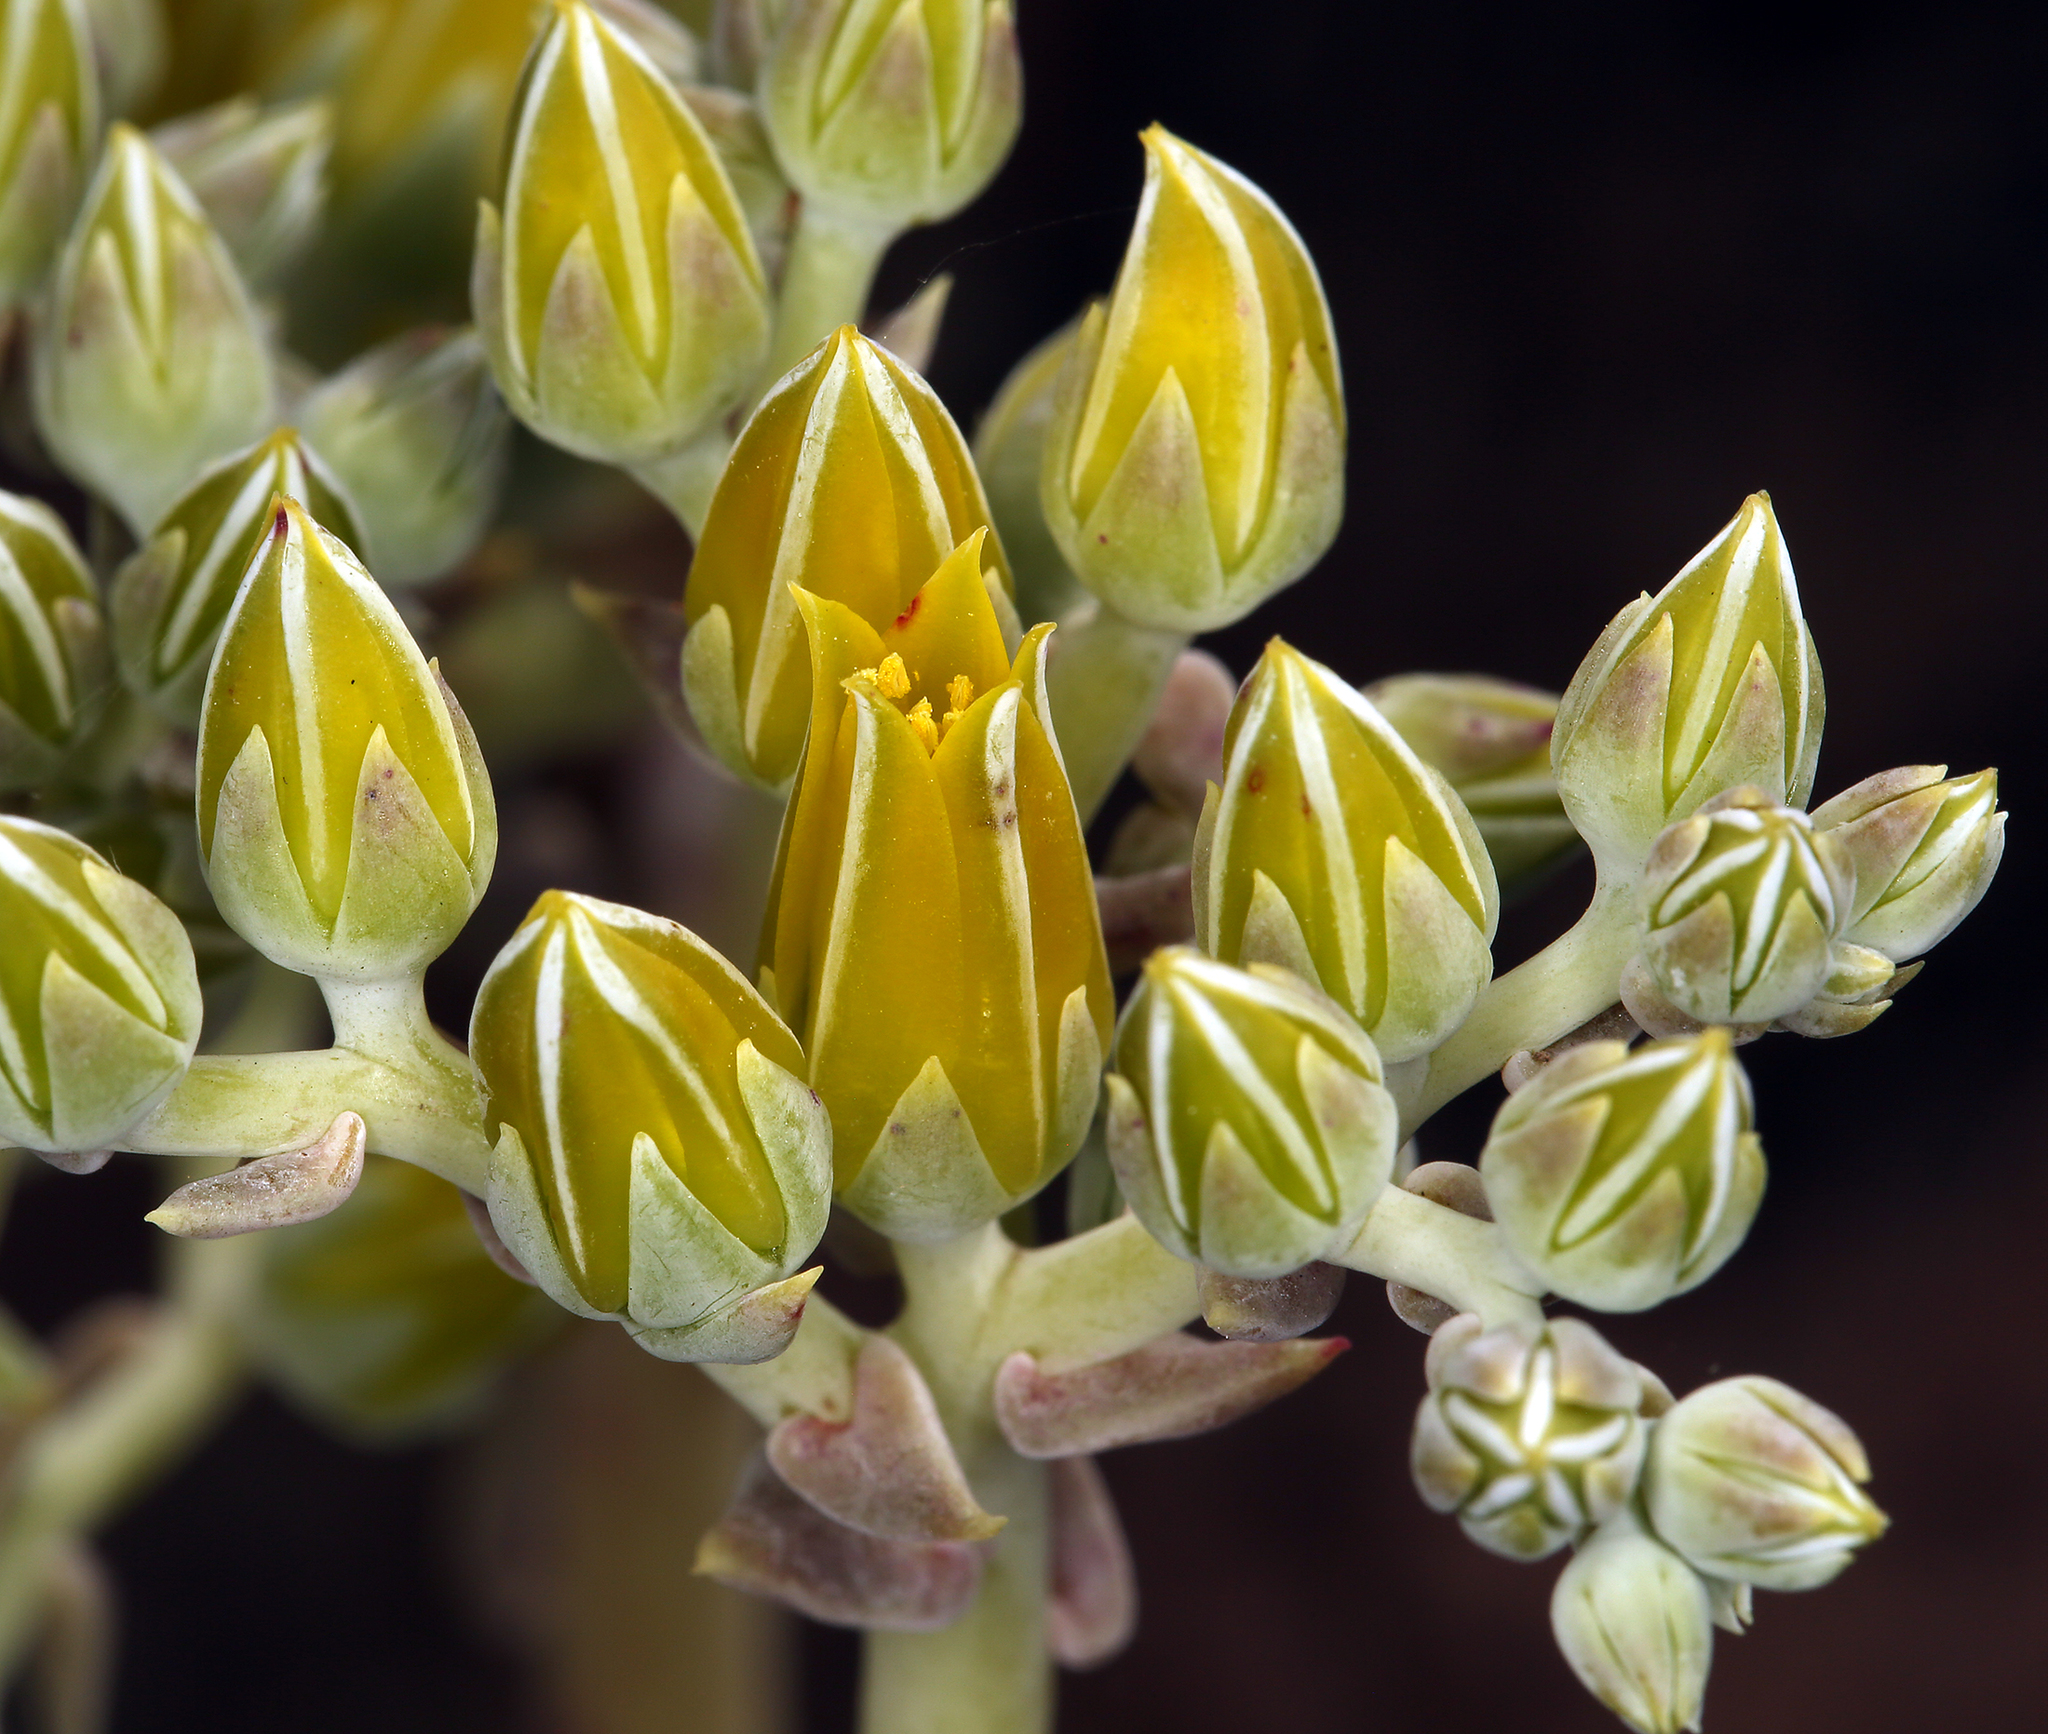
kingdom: Plantae
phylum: Tracheophyta
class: Magnoliopsida
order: Saxifragales
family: Crassulaceae
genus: Dudleya
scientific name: Dudleya
